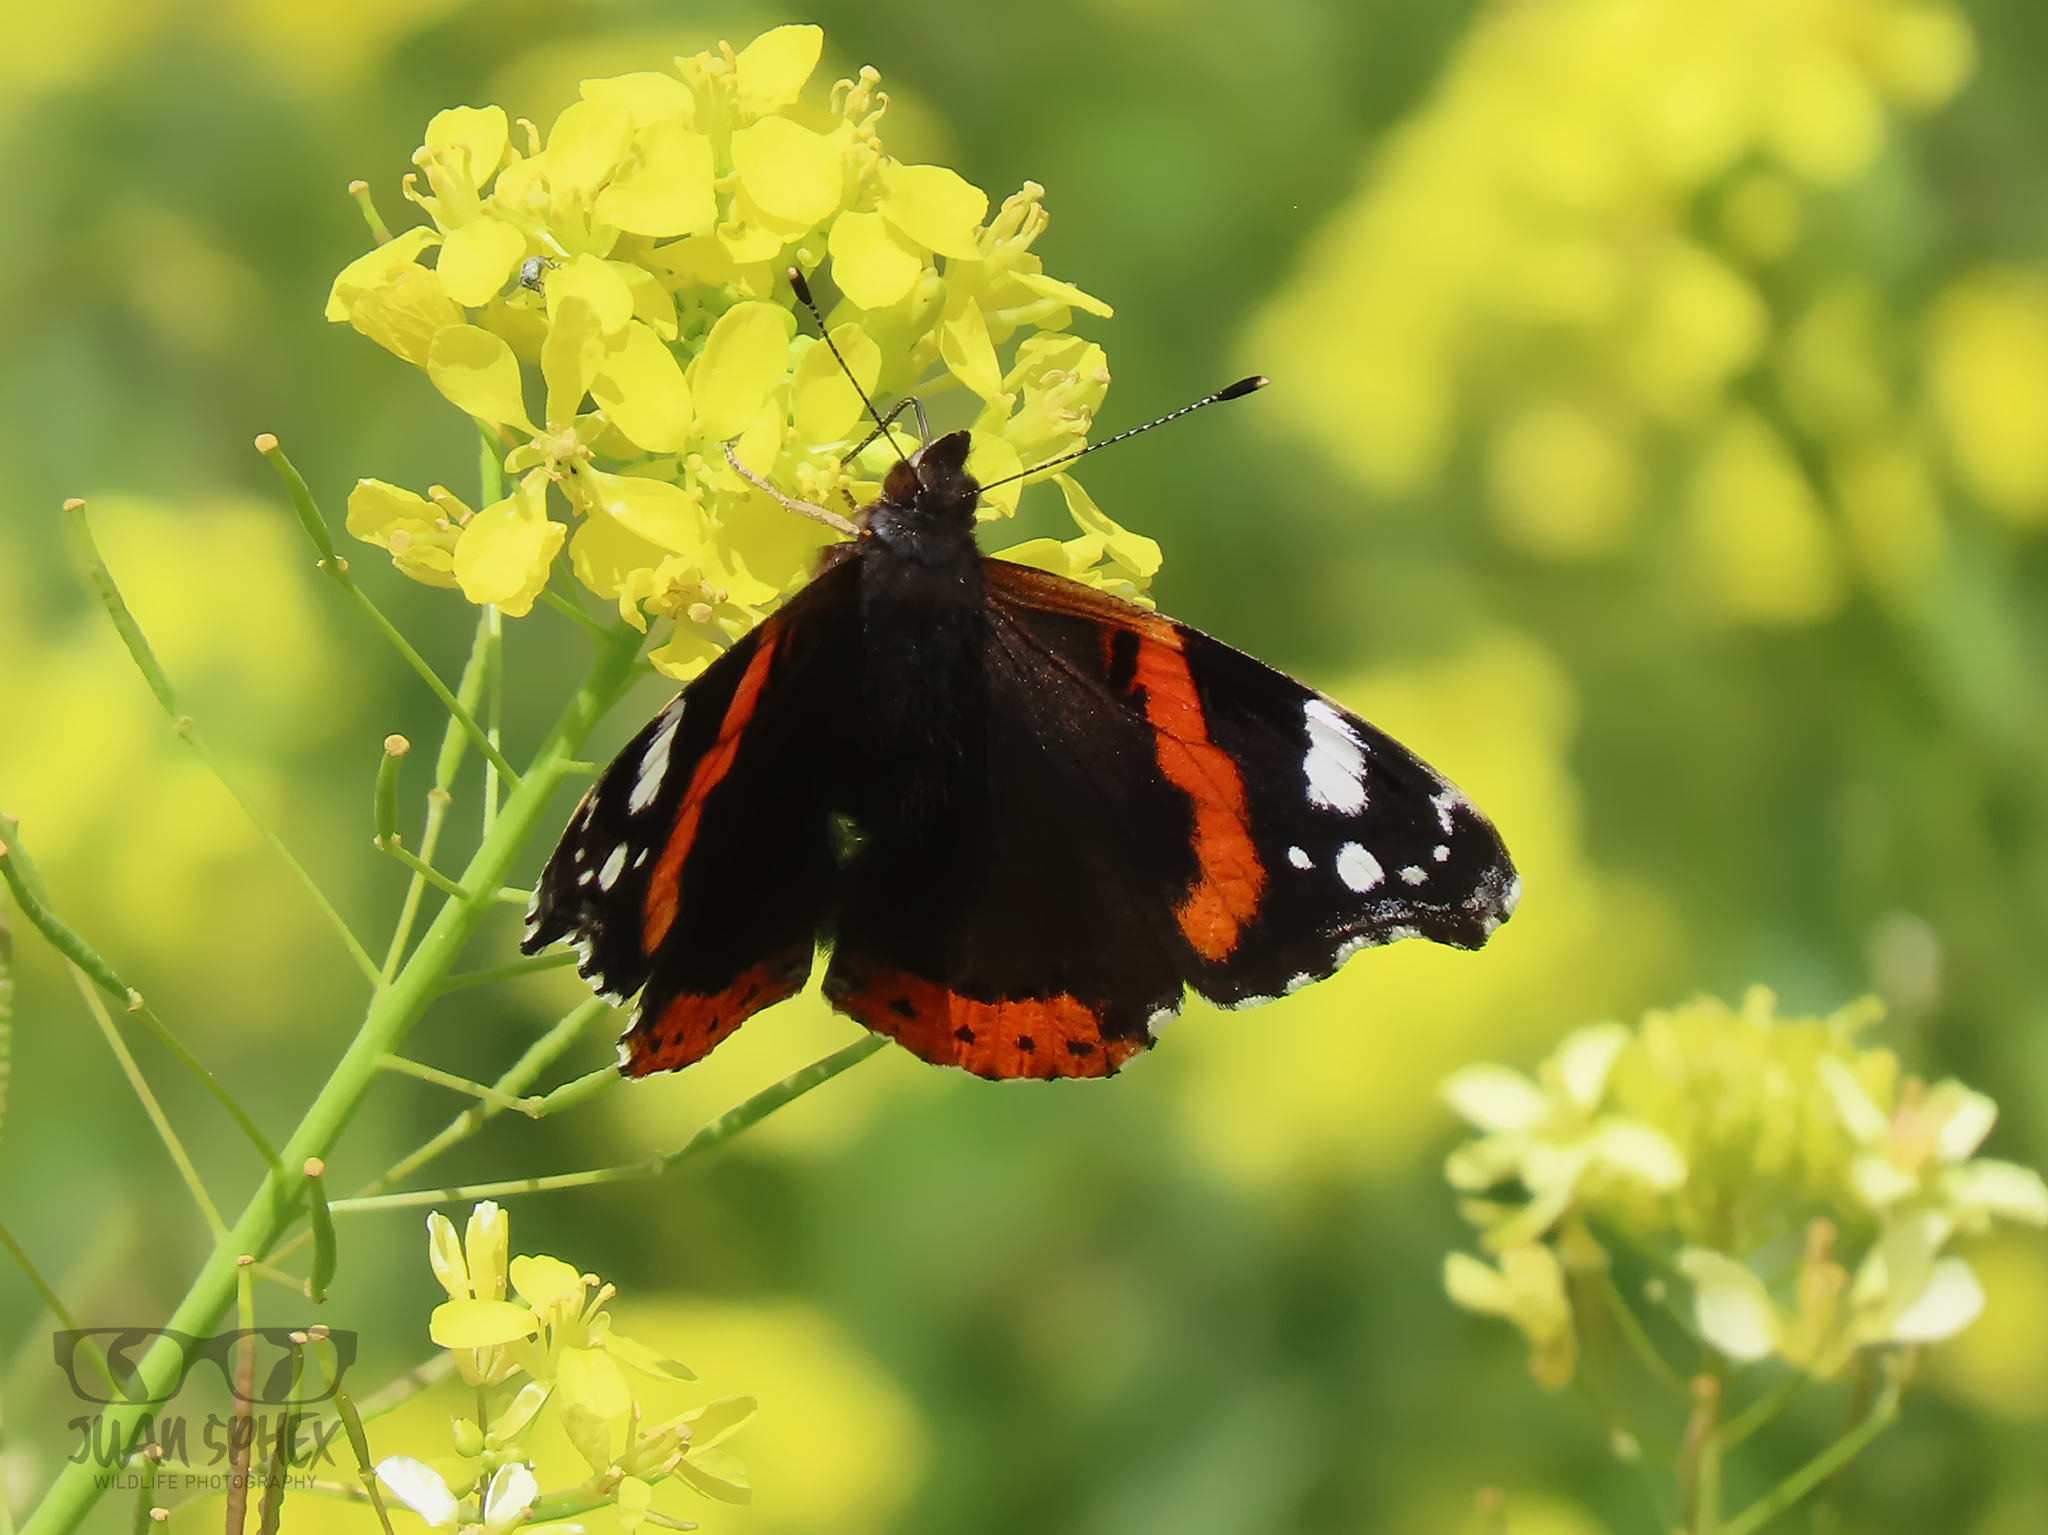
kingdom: Animalia
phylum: Arthropoda
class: Insecta
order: Lepidoptera
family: Nymphalidae
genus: Vanessa
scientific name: Vanessa atalanta
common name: Red admiral
